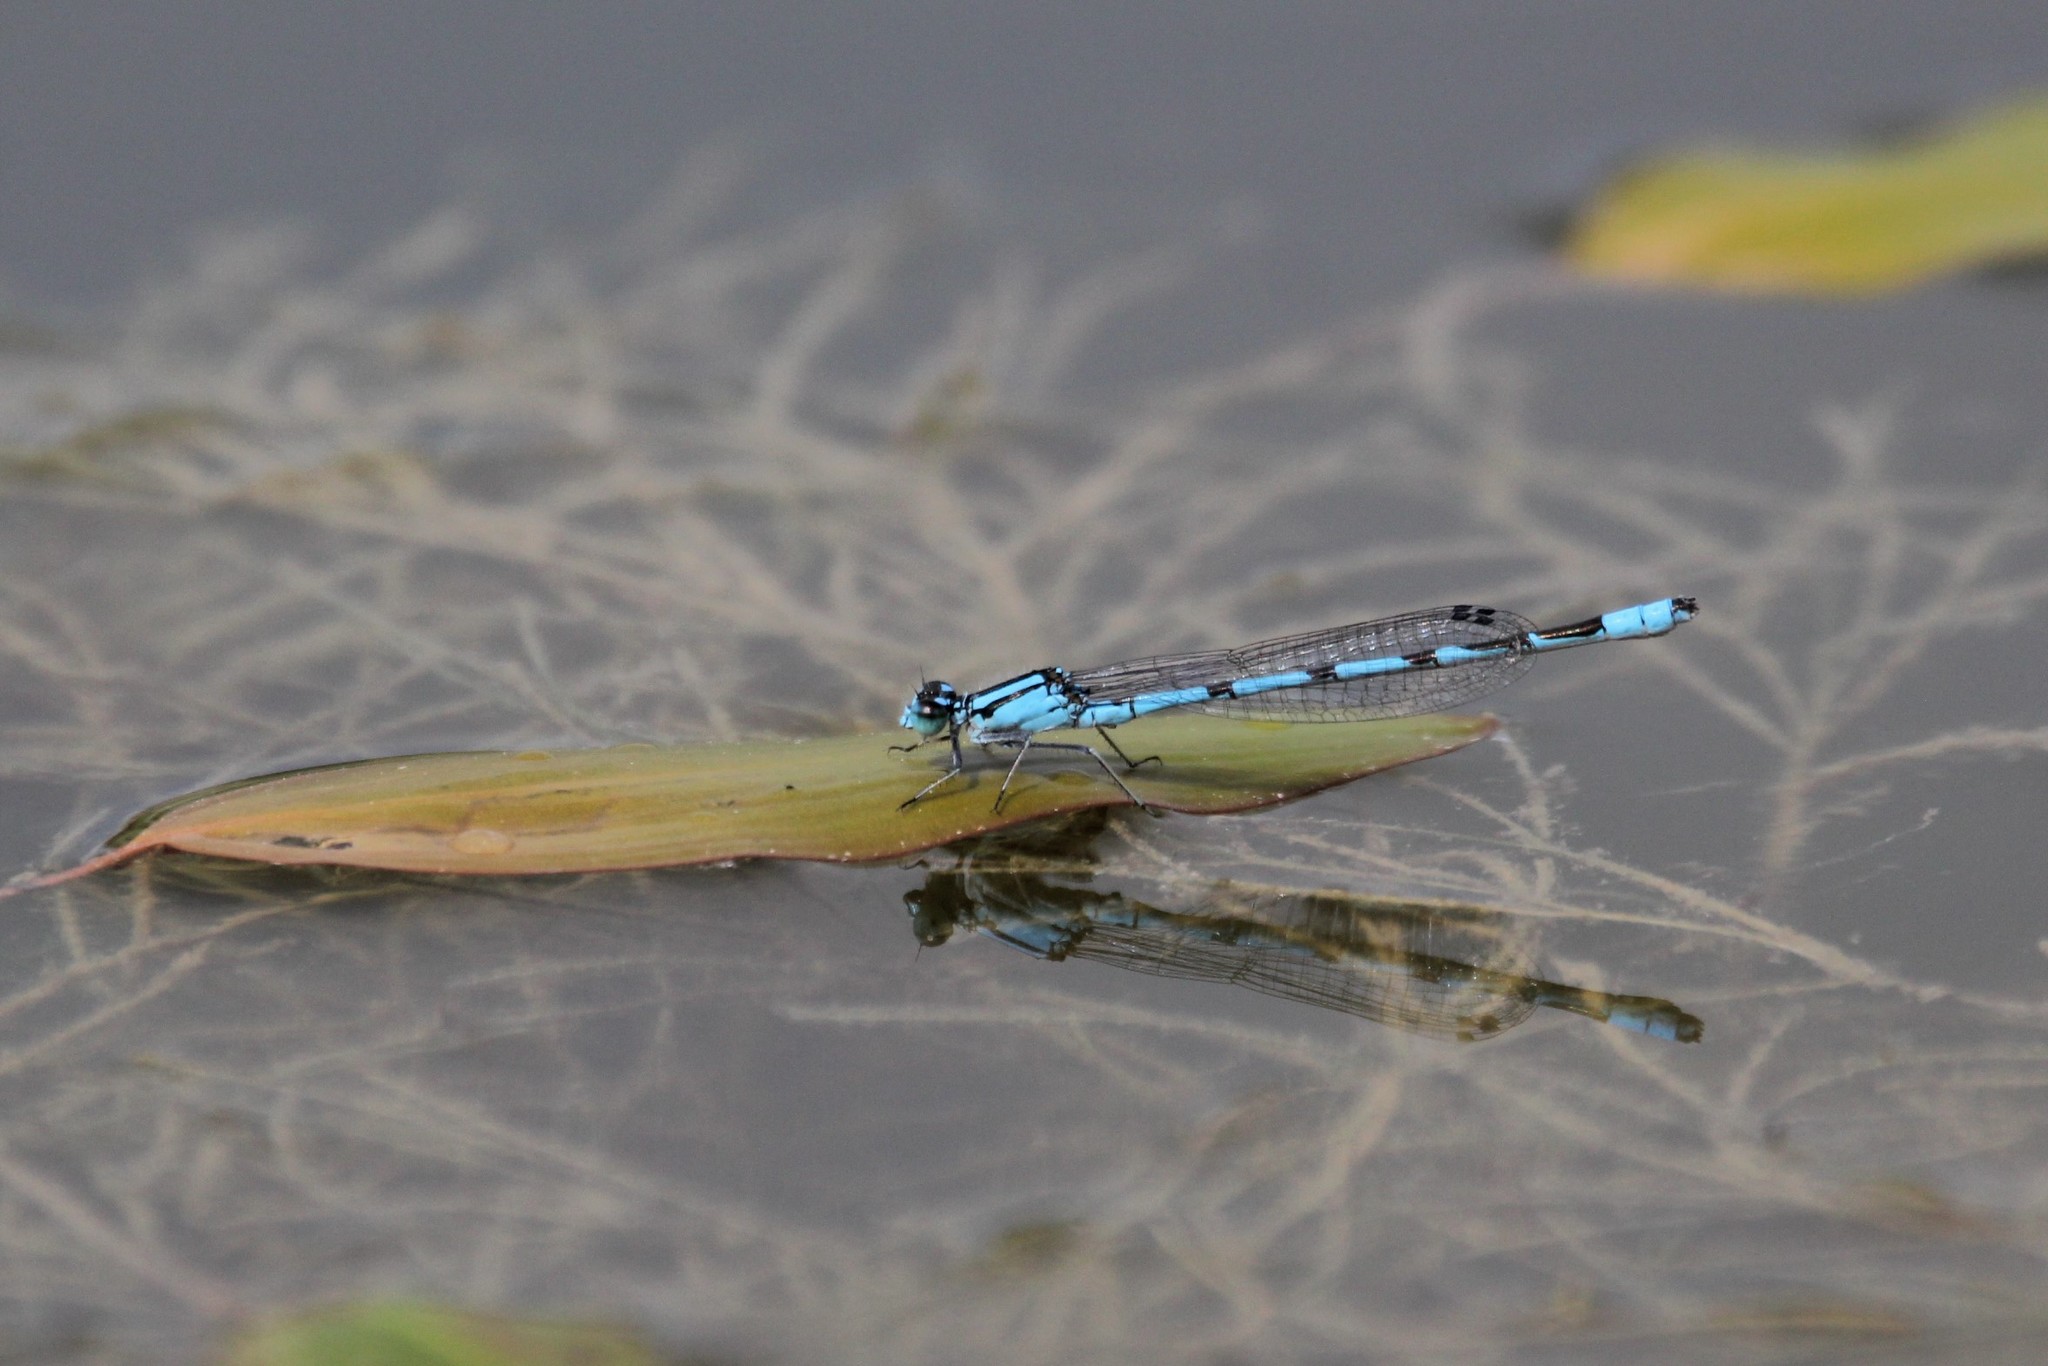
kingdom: Animalia
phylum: Arthropoda
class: Insecta
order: Odonata
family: Coenagrionidae
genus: Enallagma
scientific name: Enallagma ebrium
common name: Marsh bluet
